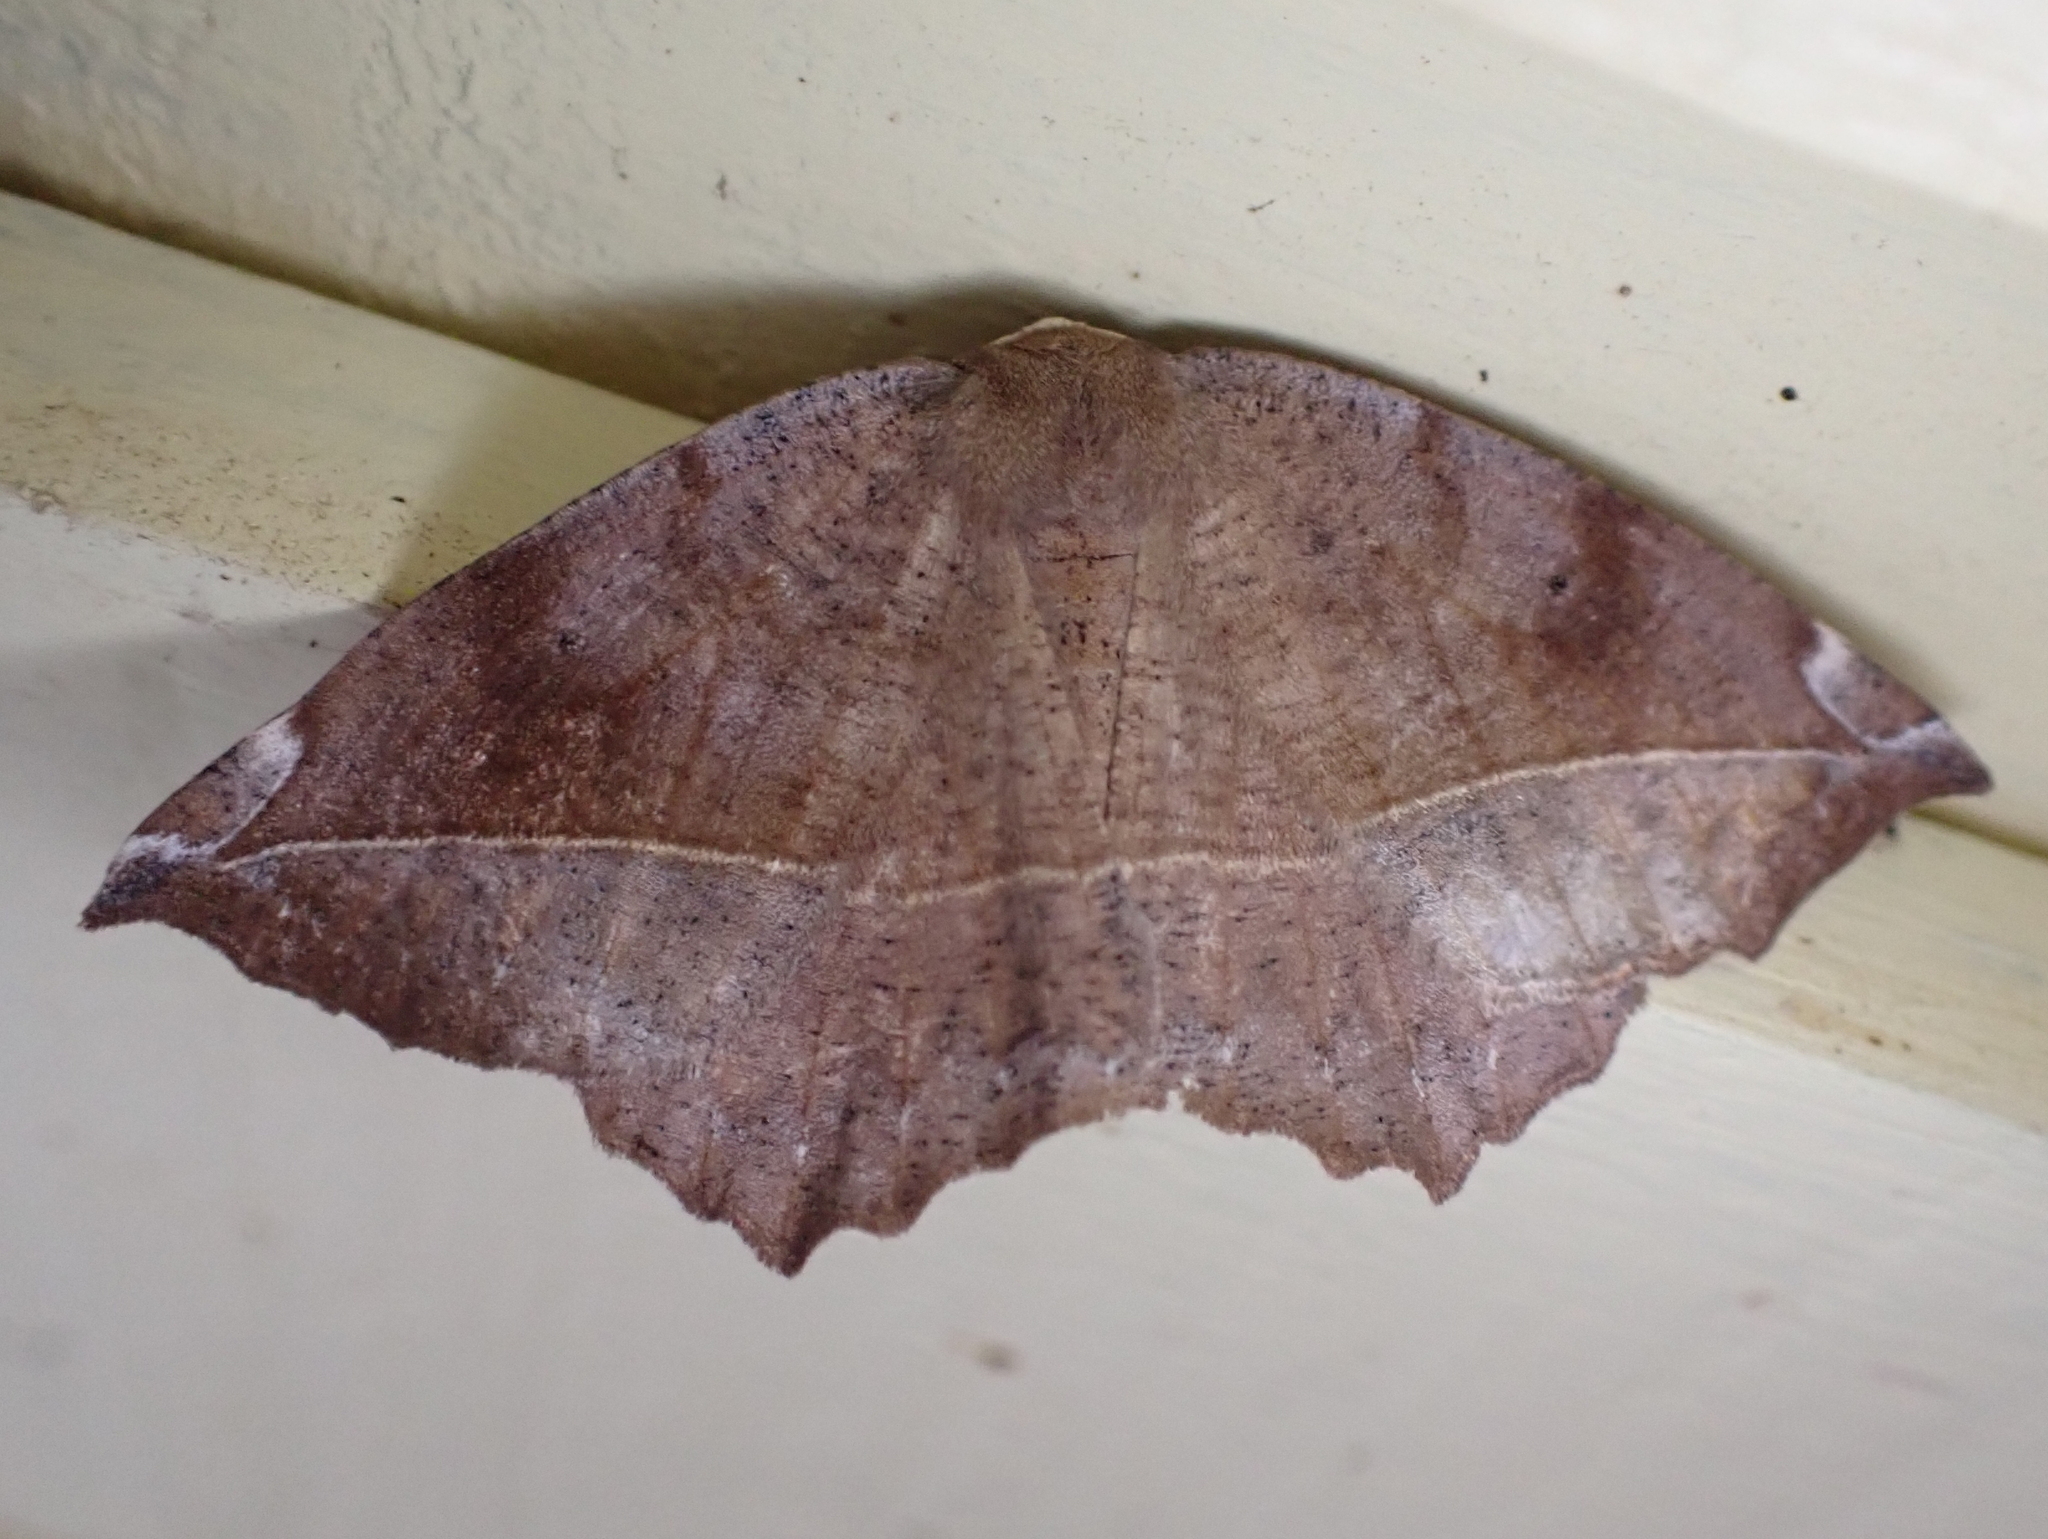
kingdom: Animalia
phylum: Arthropoda
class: Insecta
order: Lepidoptera
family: Geometridae
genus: Eutrapela
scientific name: Eutrapela clemataria
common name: Curved-toothed geometer
